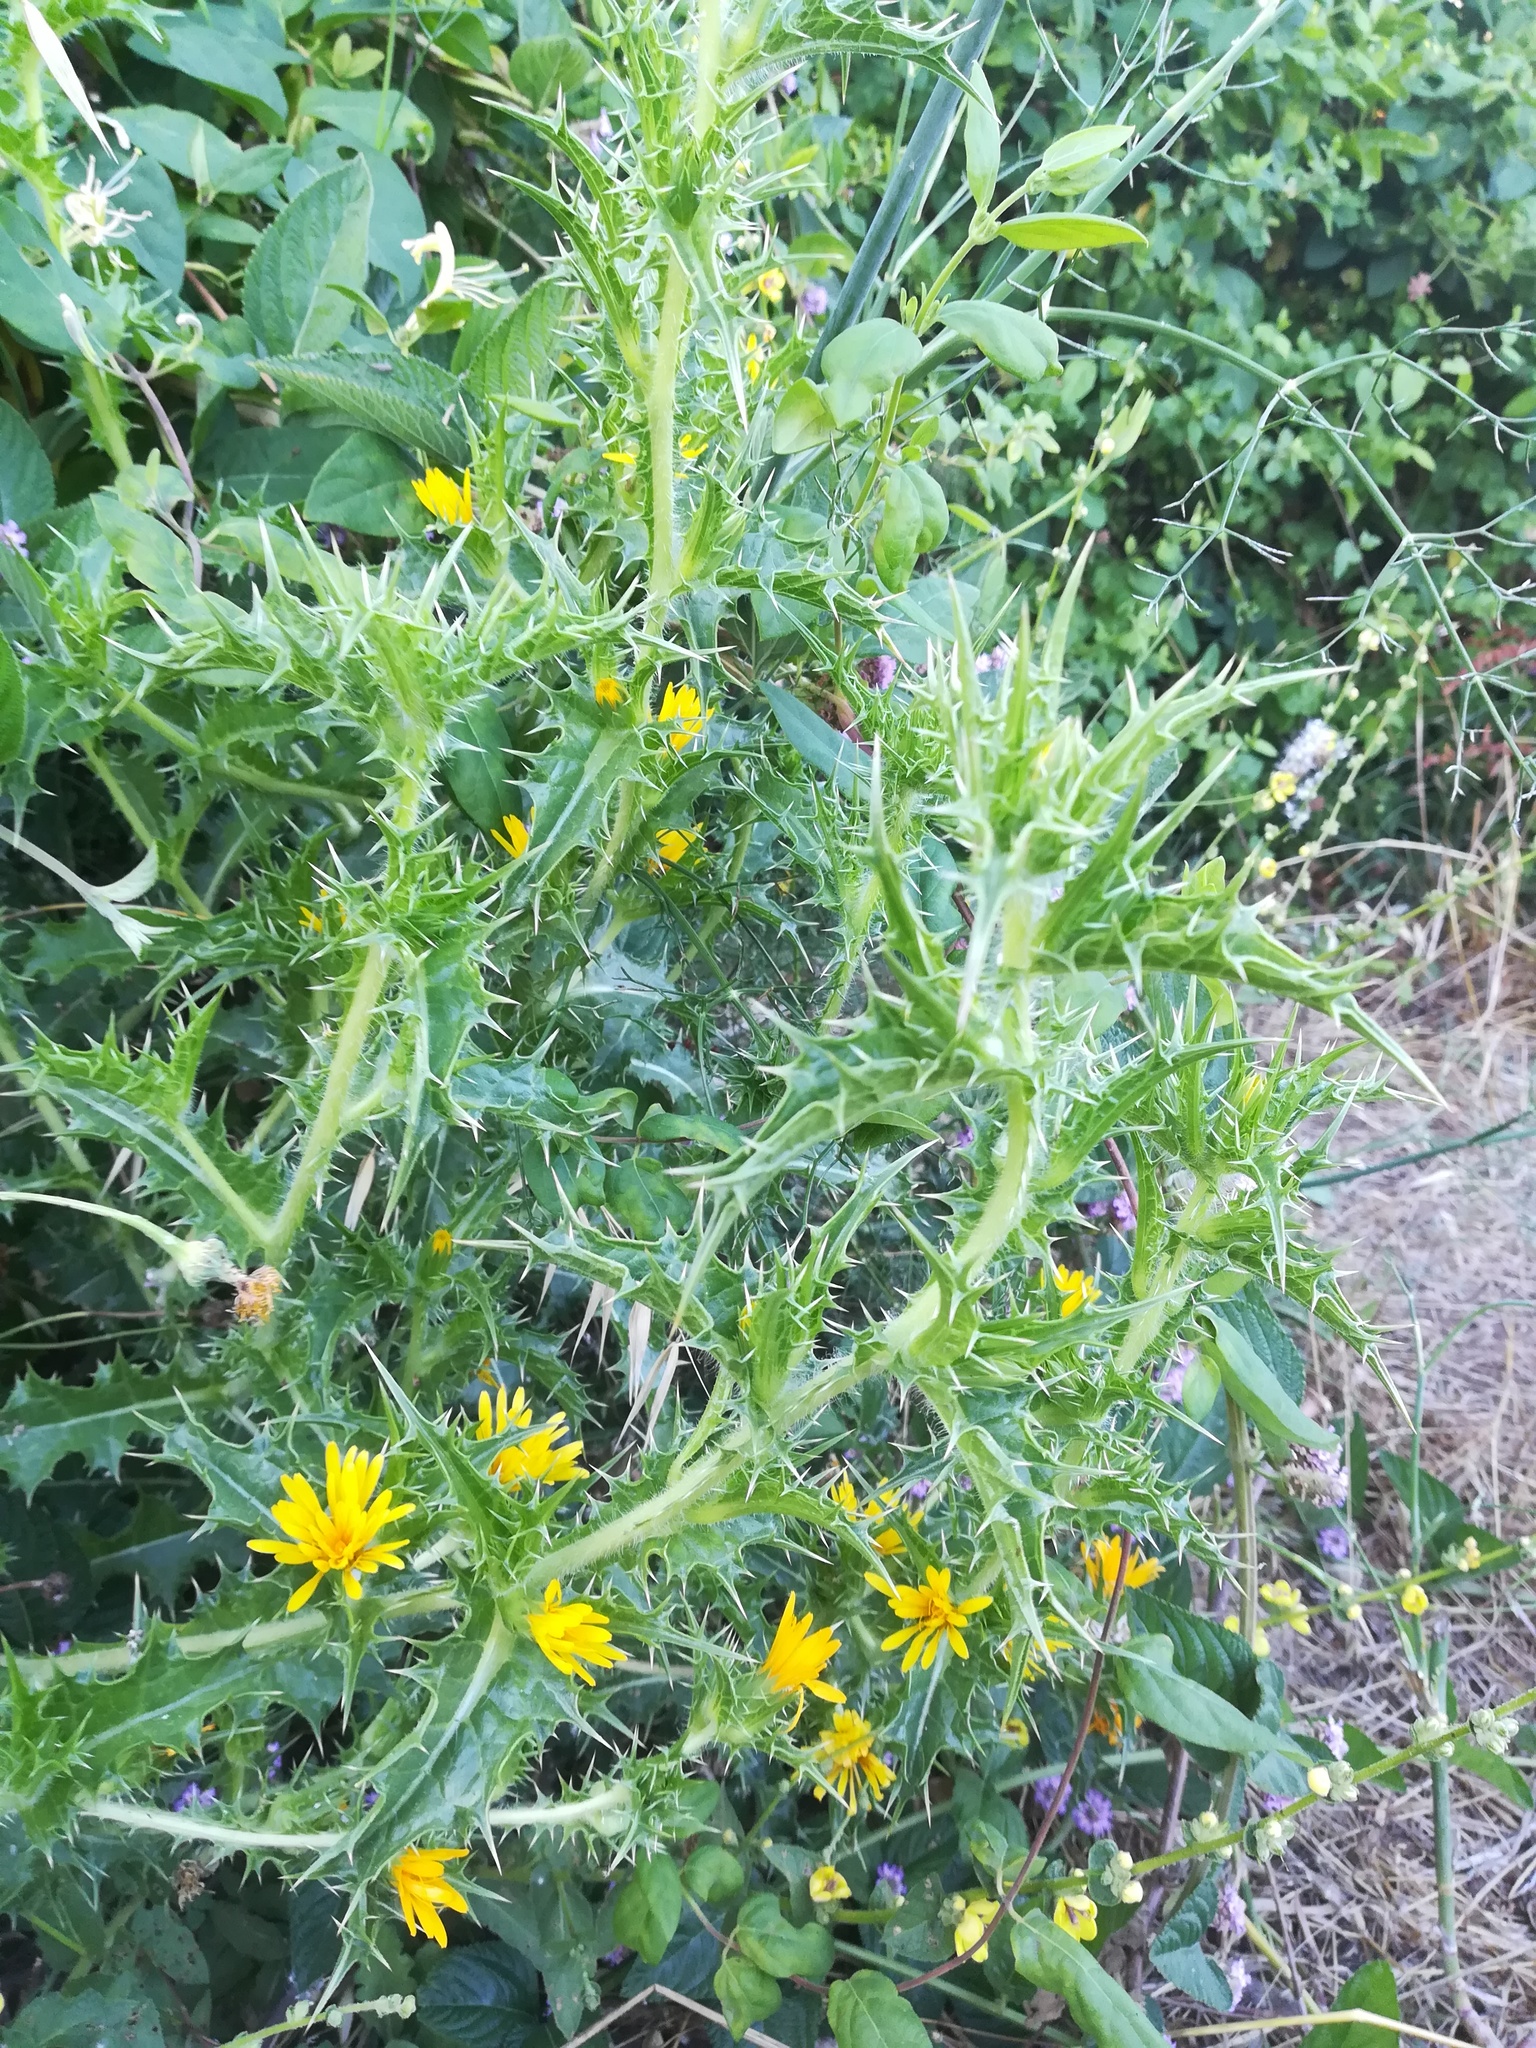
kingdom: Plantae
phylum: Tracheophyta
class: Magnoliopsida
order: Asterales
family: Asteraceae
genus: Scolymus
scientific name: Scolymus hispanicus
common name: Golden thistle
